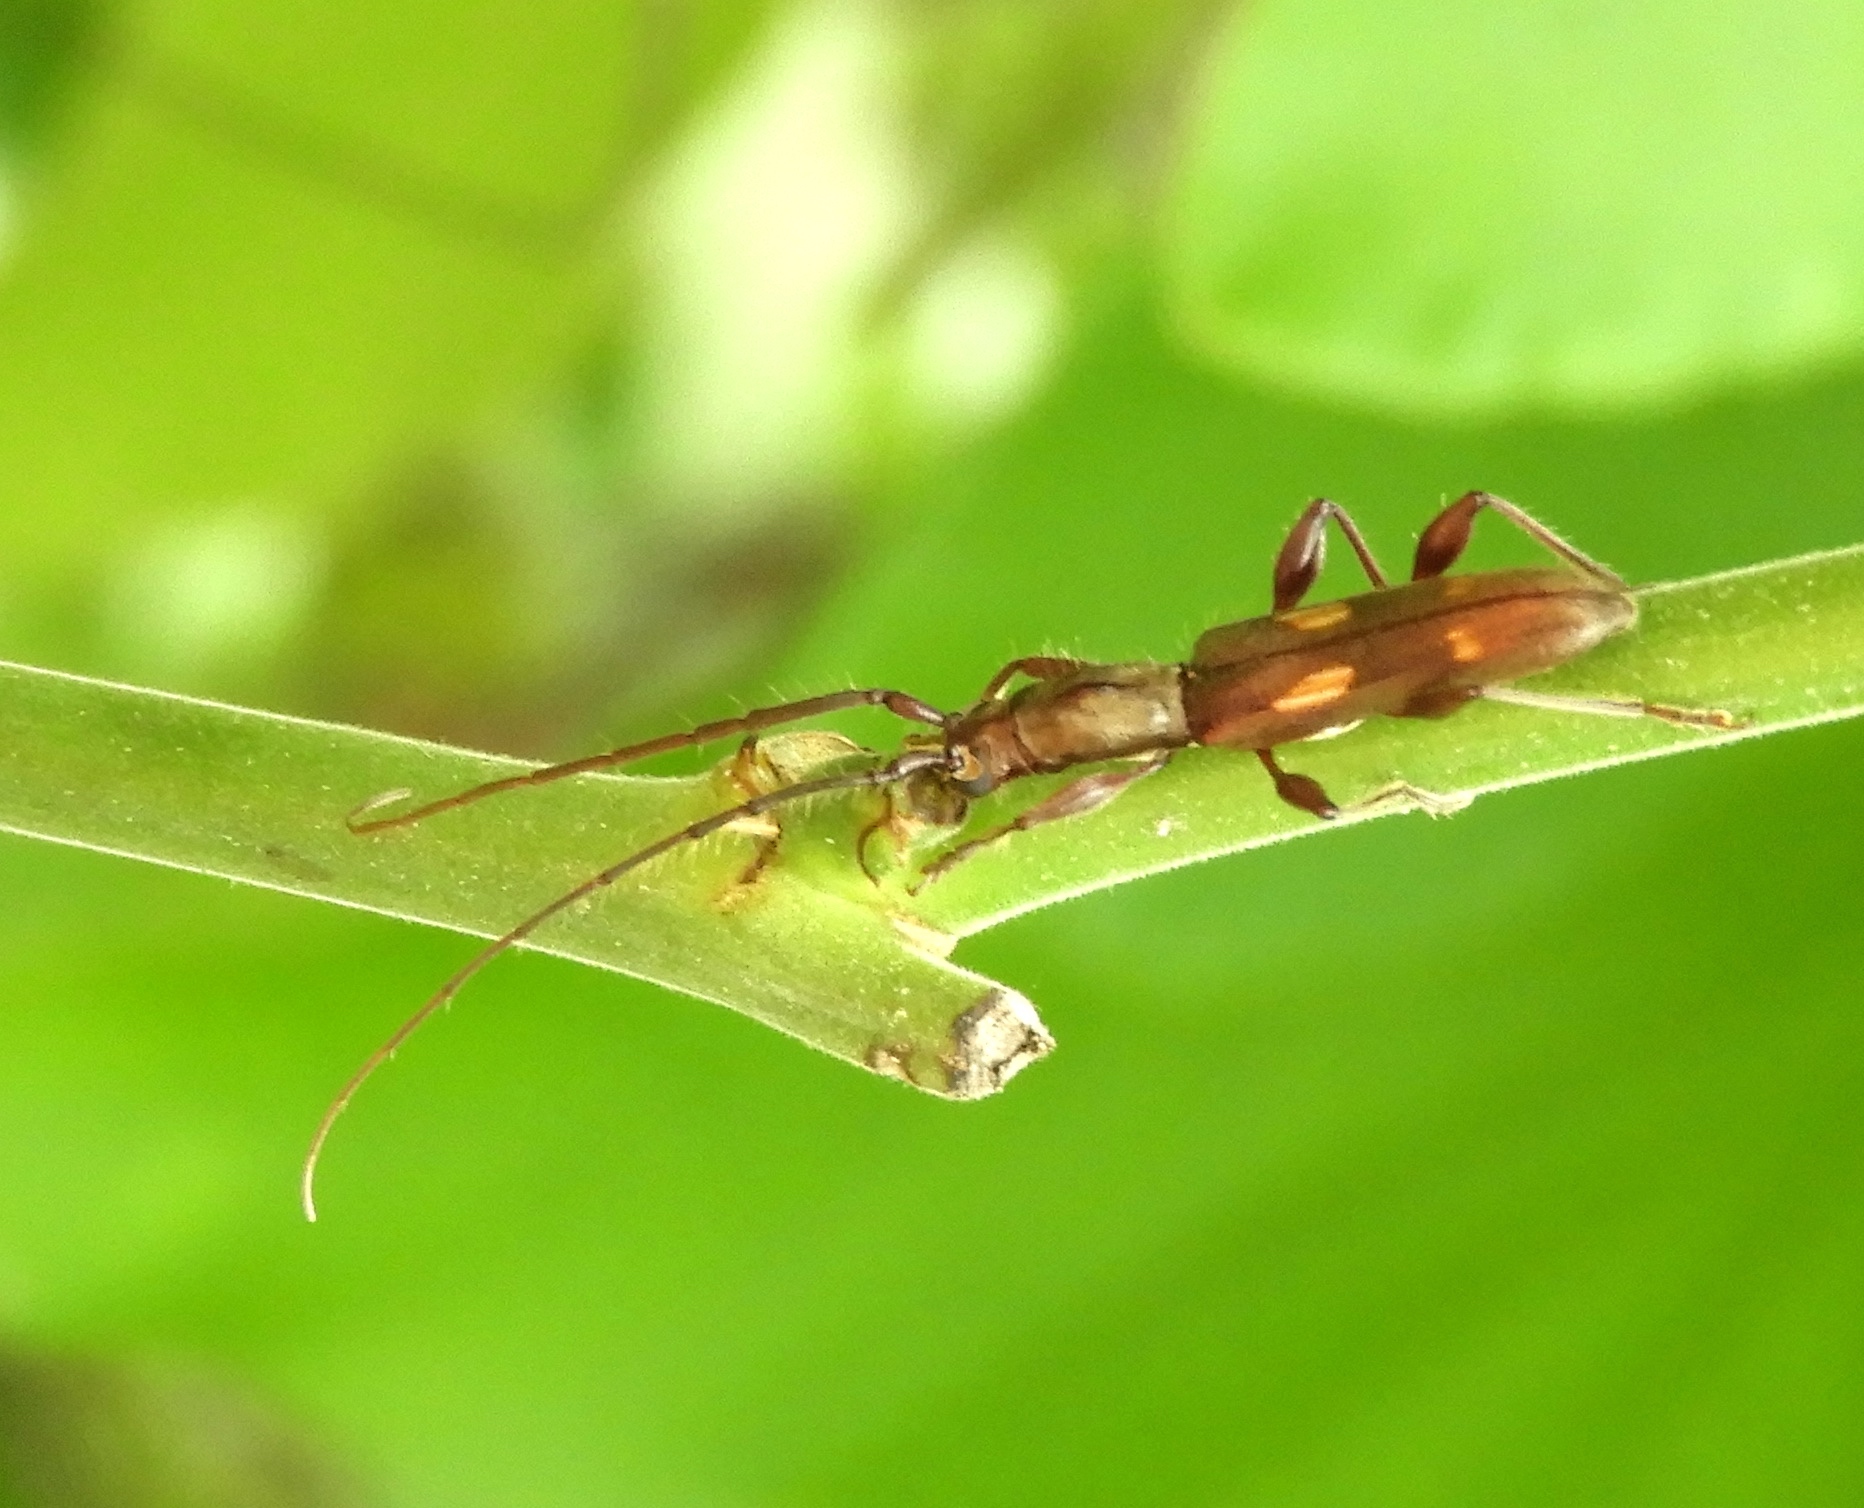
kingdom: Animalia
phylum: Arthropoda
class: Insecta
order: Coleoptera
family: Cerambycidae
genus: Neocompsa
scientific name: Neocompsa agnosta
